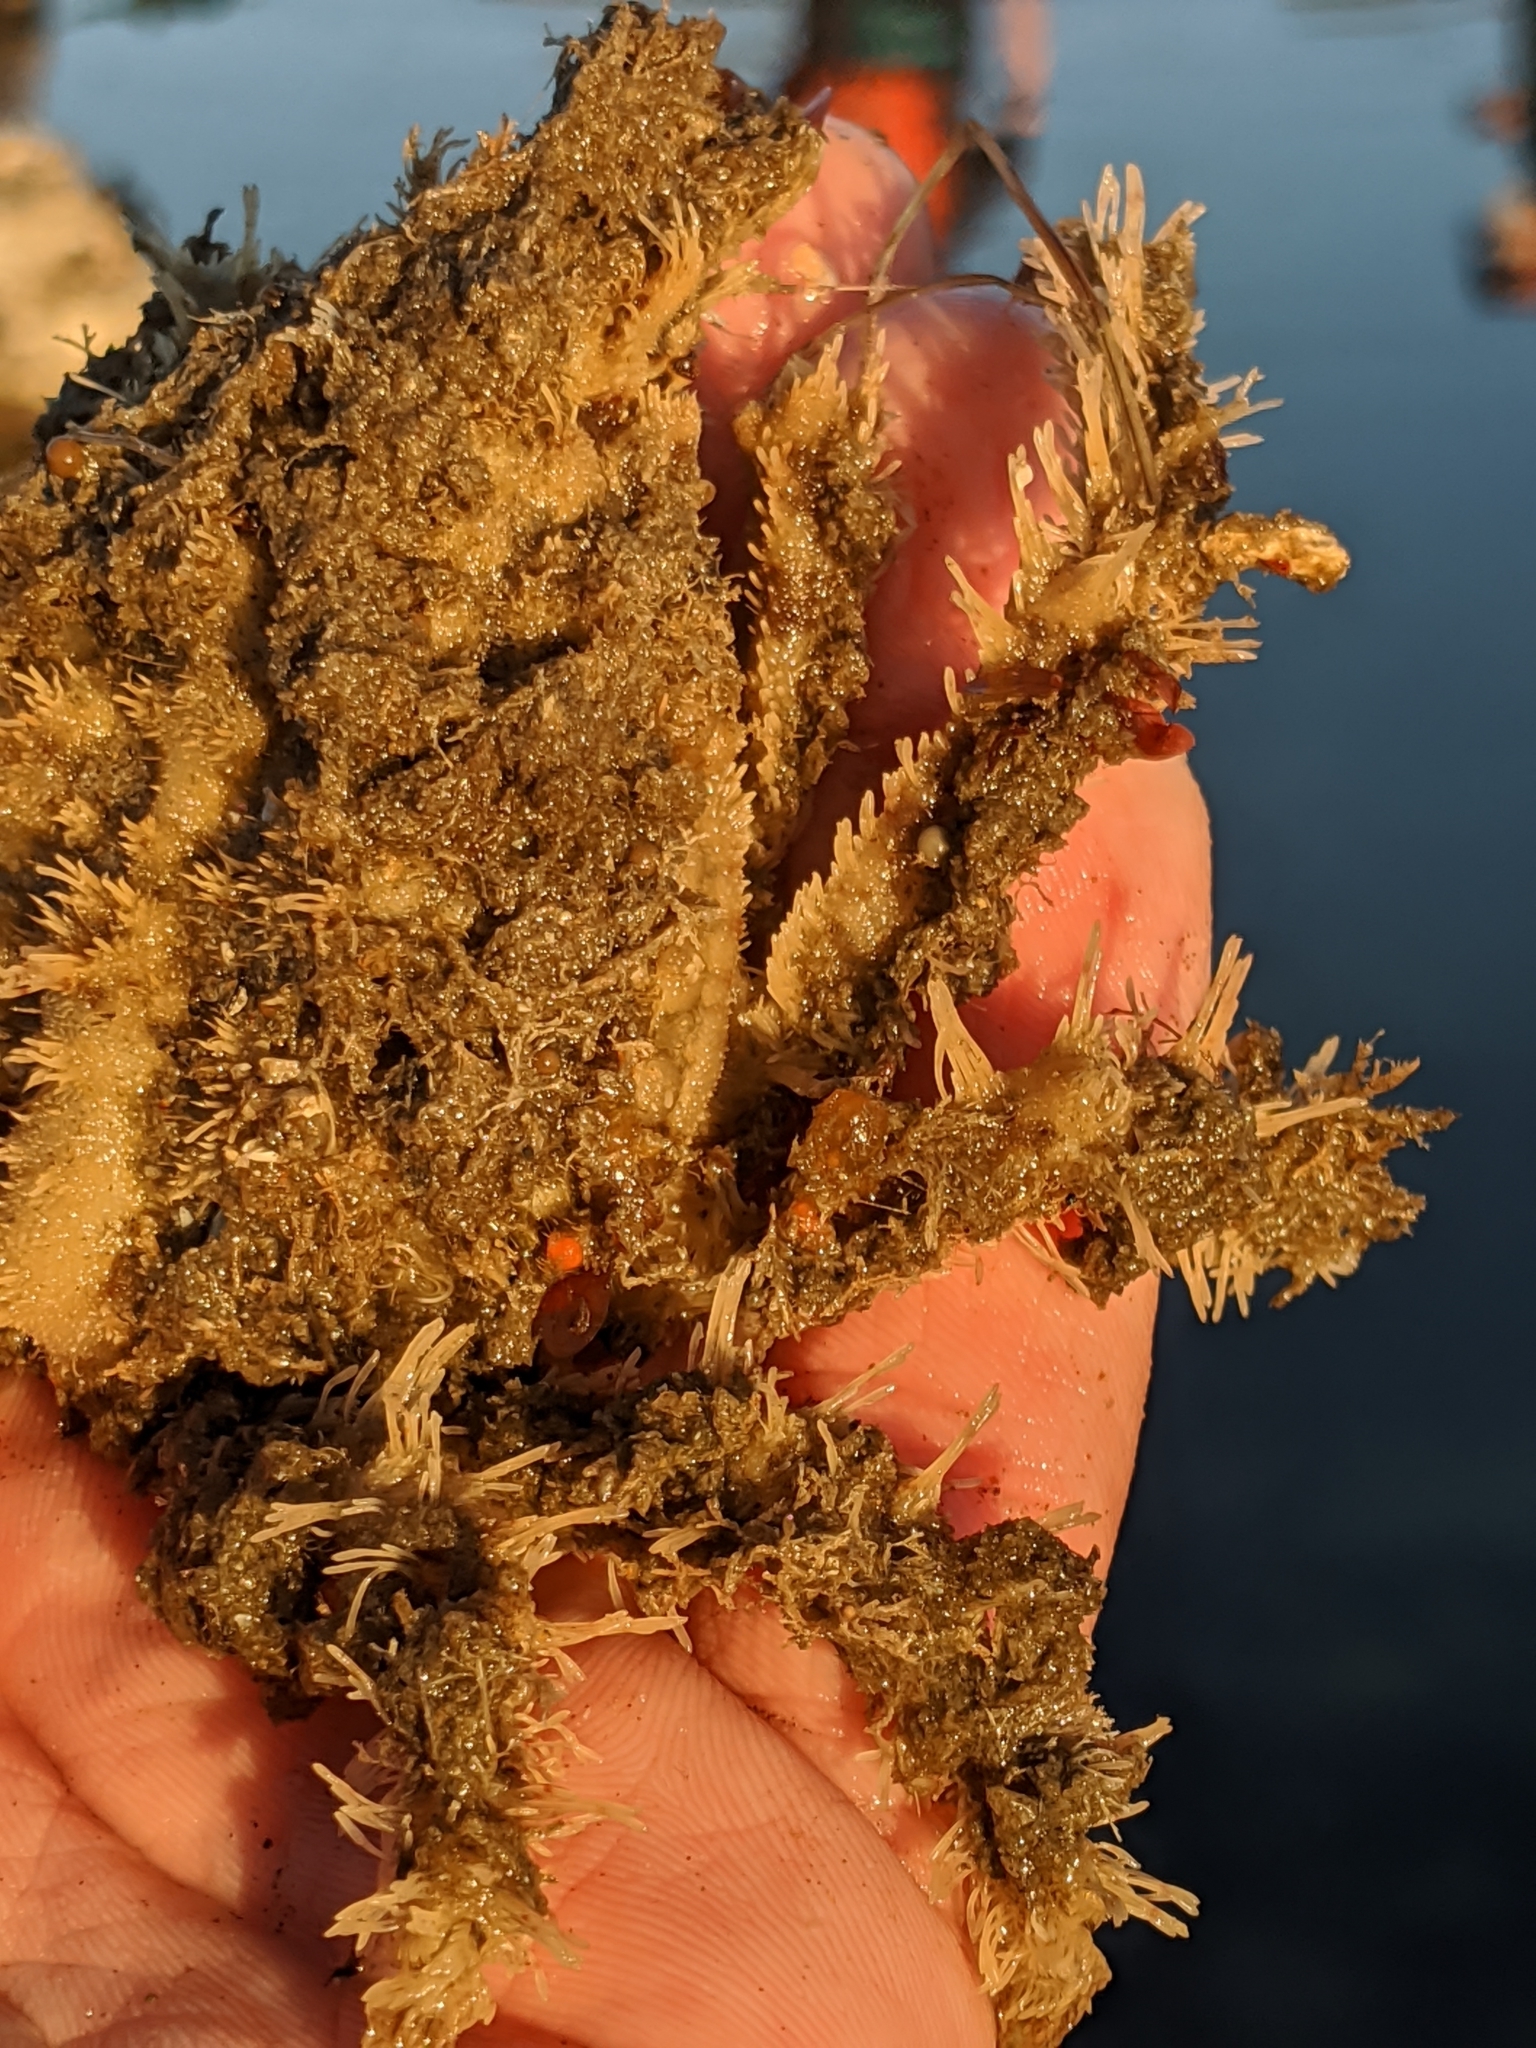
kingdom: Animalia
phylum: Arthropoda
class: Malacostraca
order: Decapoda
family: Epialtidae
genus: Loxorhynchus
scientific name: Loxorhynchus crispatus
